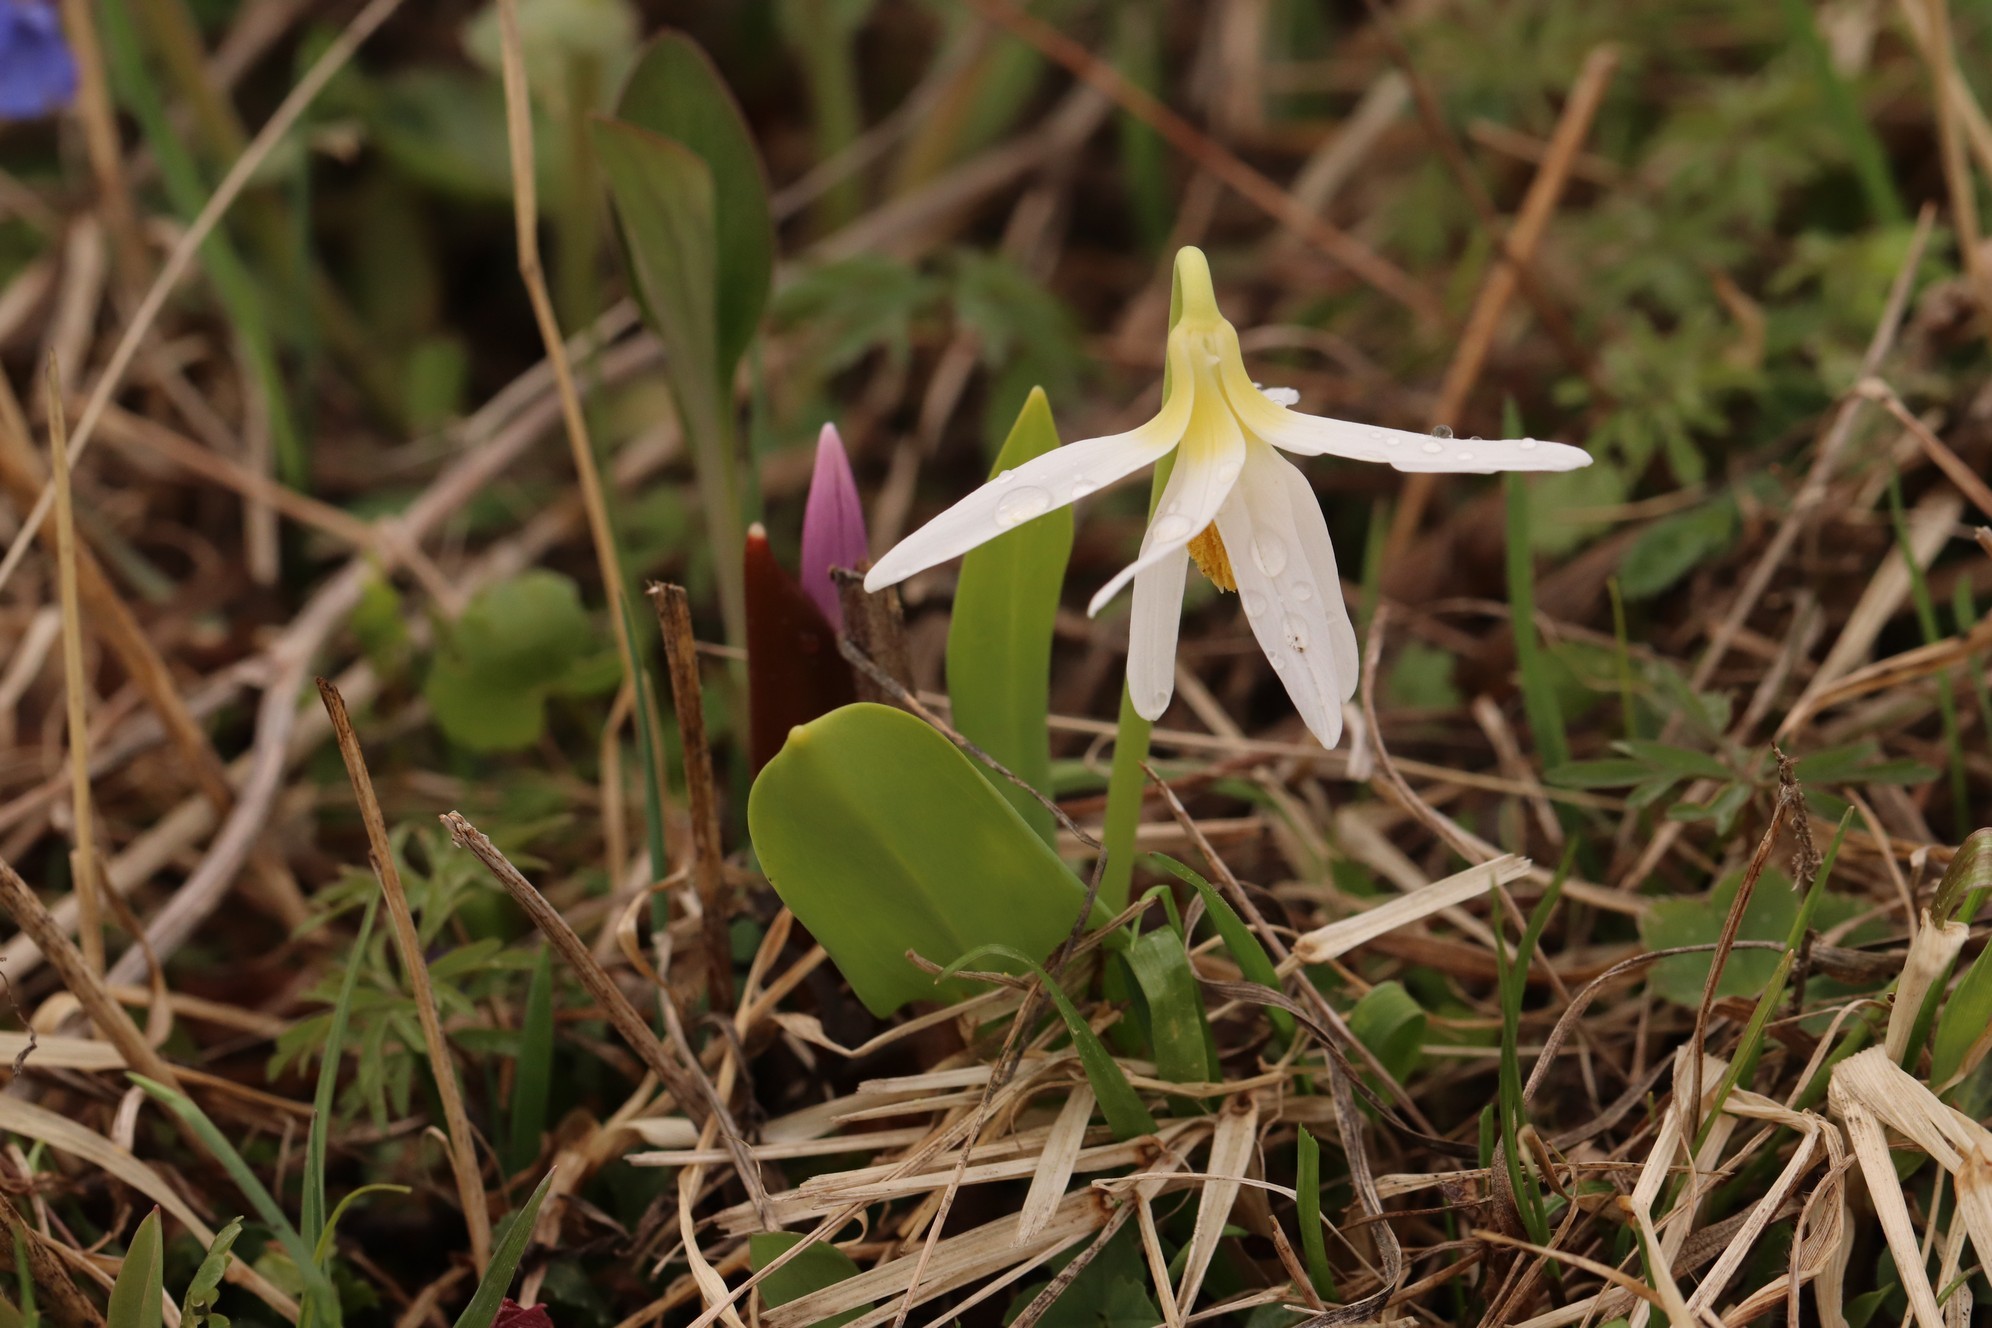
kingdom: Plantae
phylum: Tracheophyta
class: Liliopsida
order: Liliales
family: Liliaceae
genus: Erythronium
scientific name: Erythronium sibiricum
